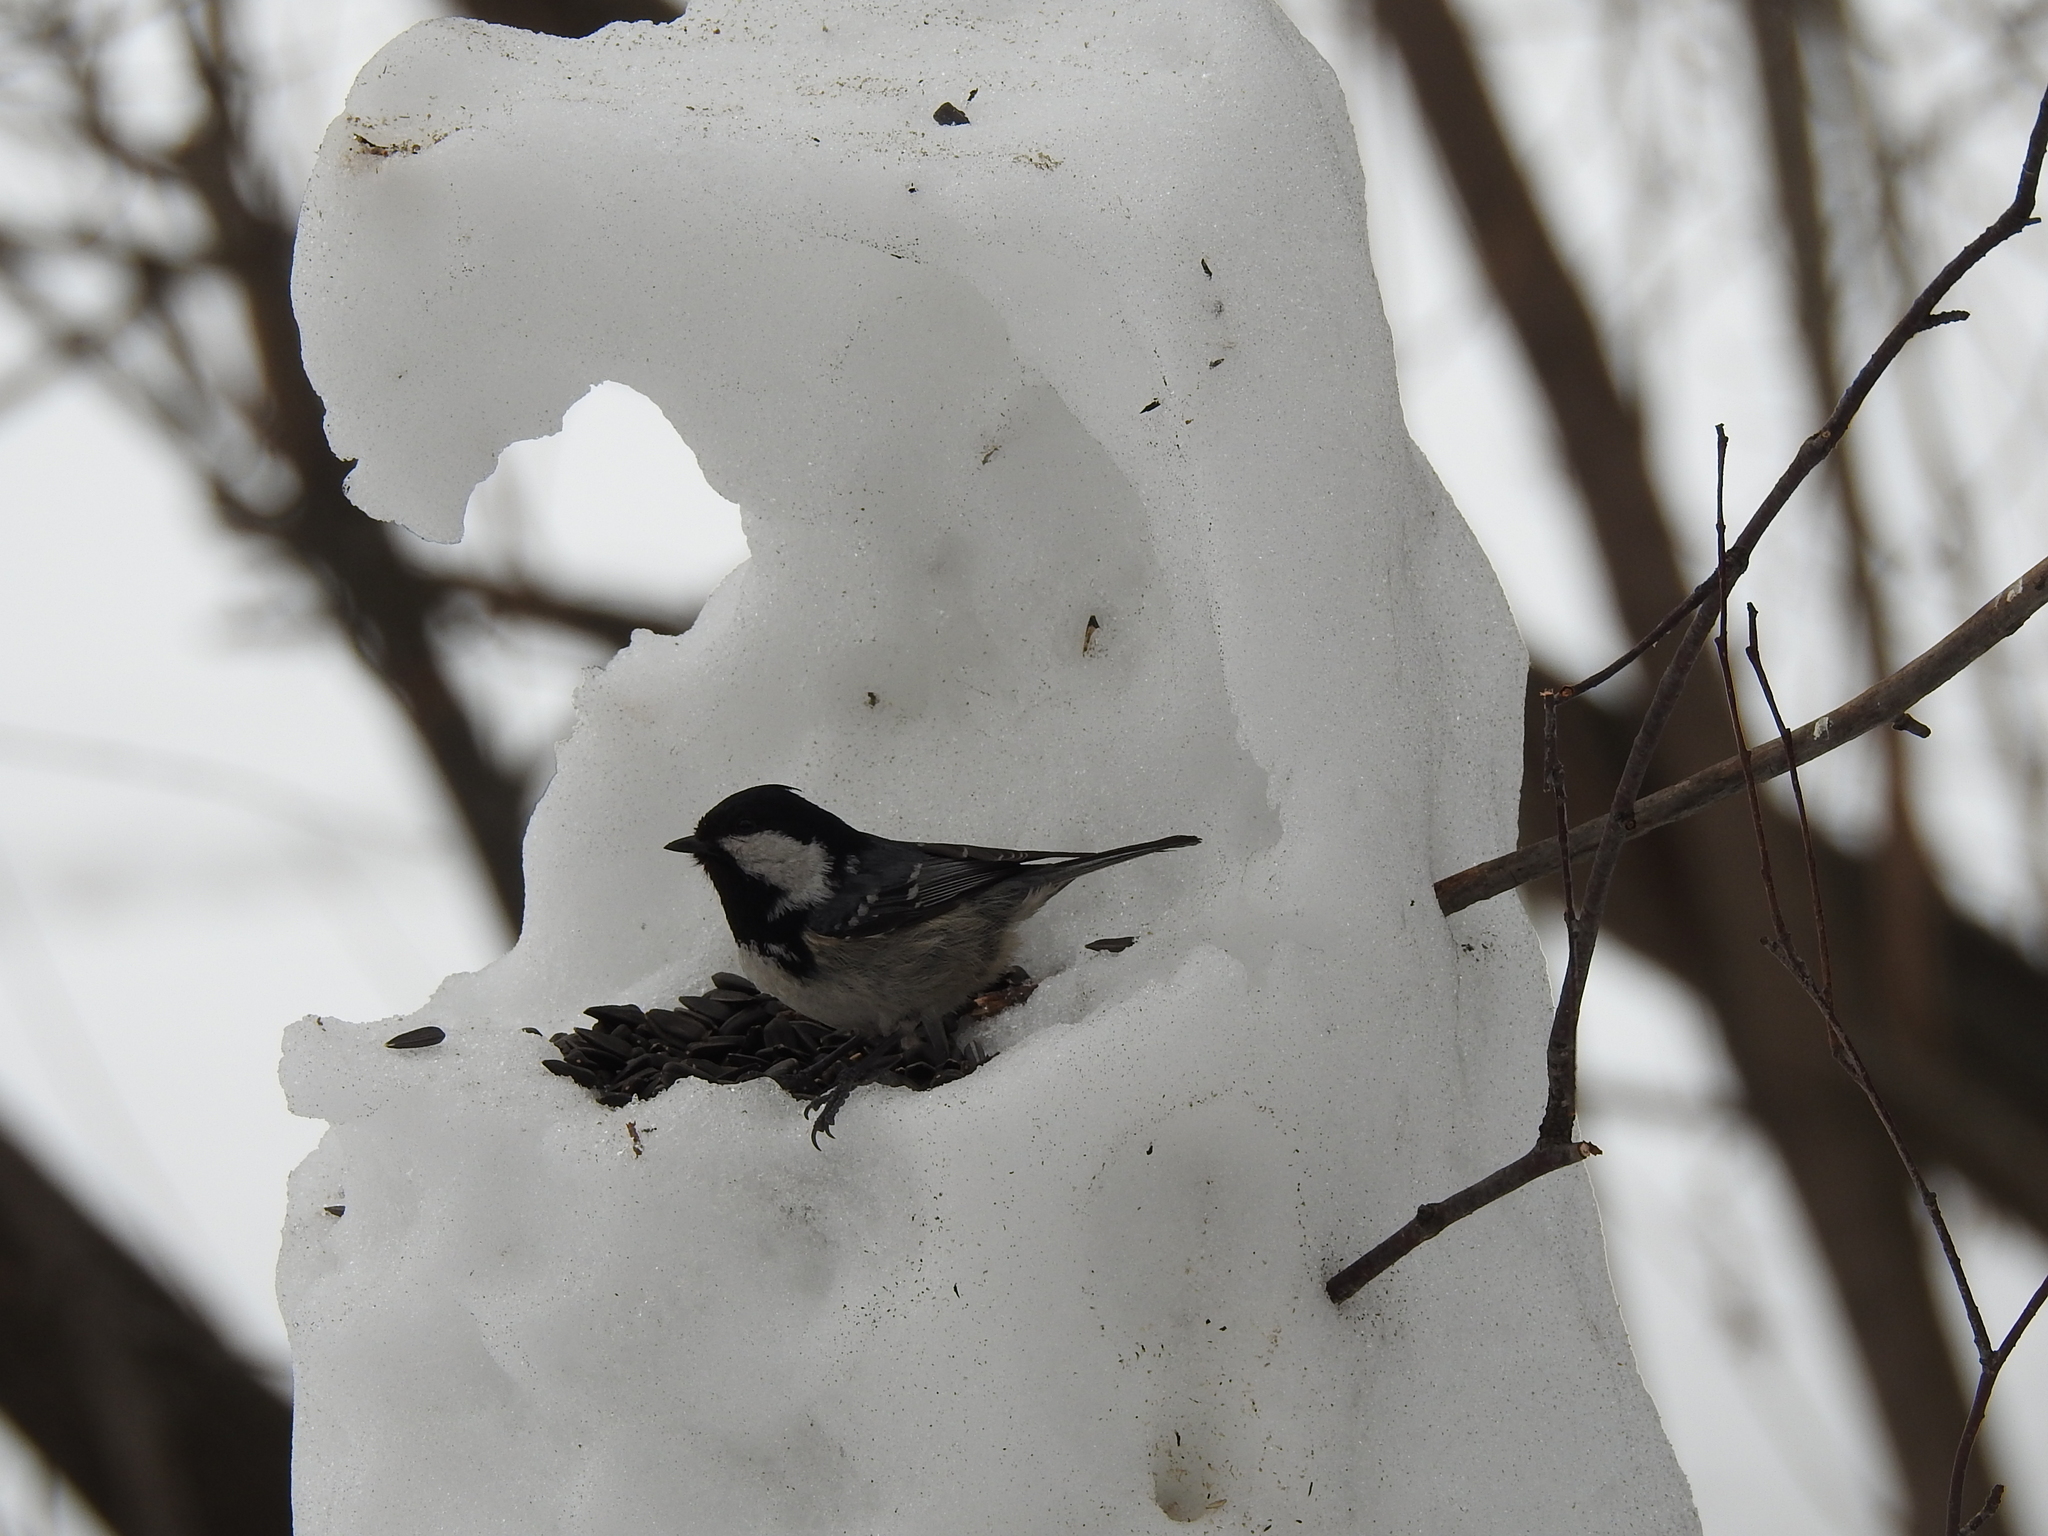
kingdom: Animalia
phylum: Chordata
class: Aves
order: Passeriformes
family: Paridae
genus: Periparus
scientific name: Periparus ater
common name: Coal tit
